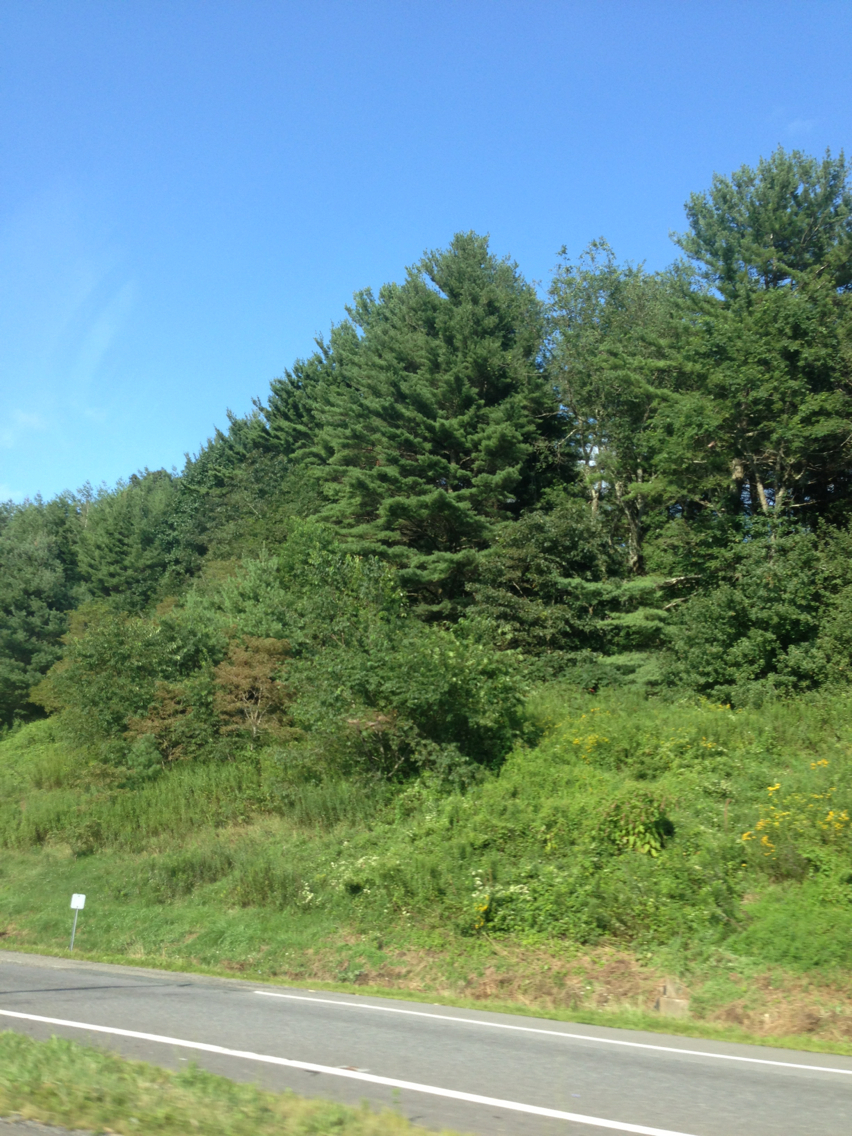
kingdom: Plantae
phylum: Tracheophyta
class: Pinopsida
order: Pinales
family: Pinaceae
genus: Pinus
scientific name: Pinus strobus
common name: Weymouth pine
